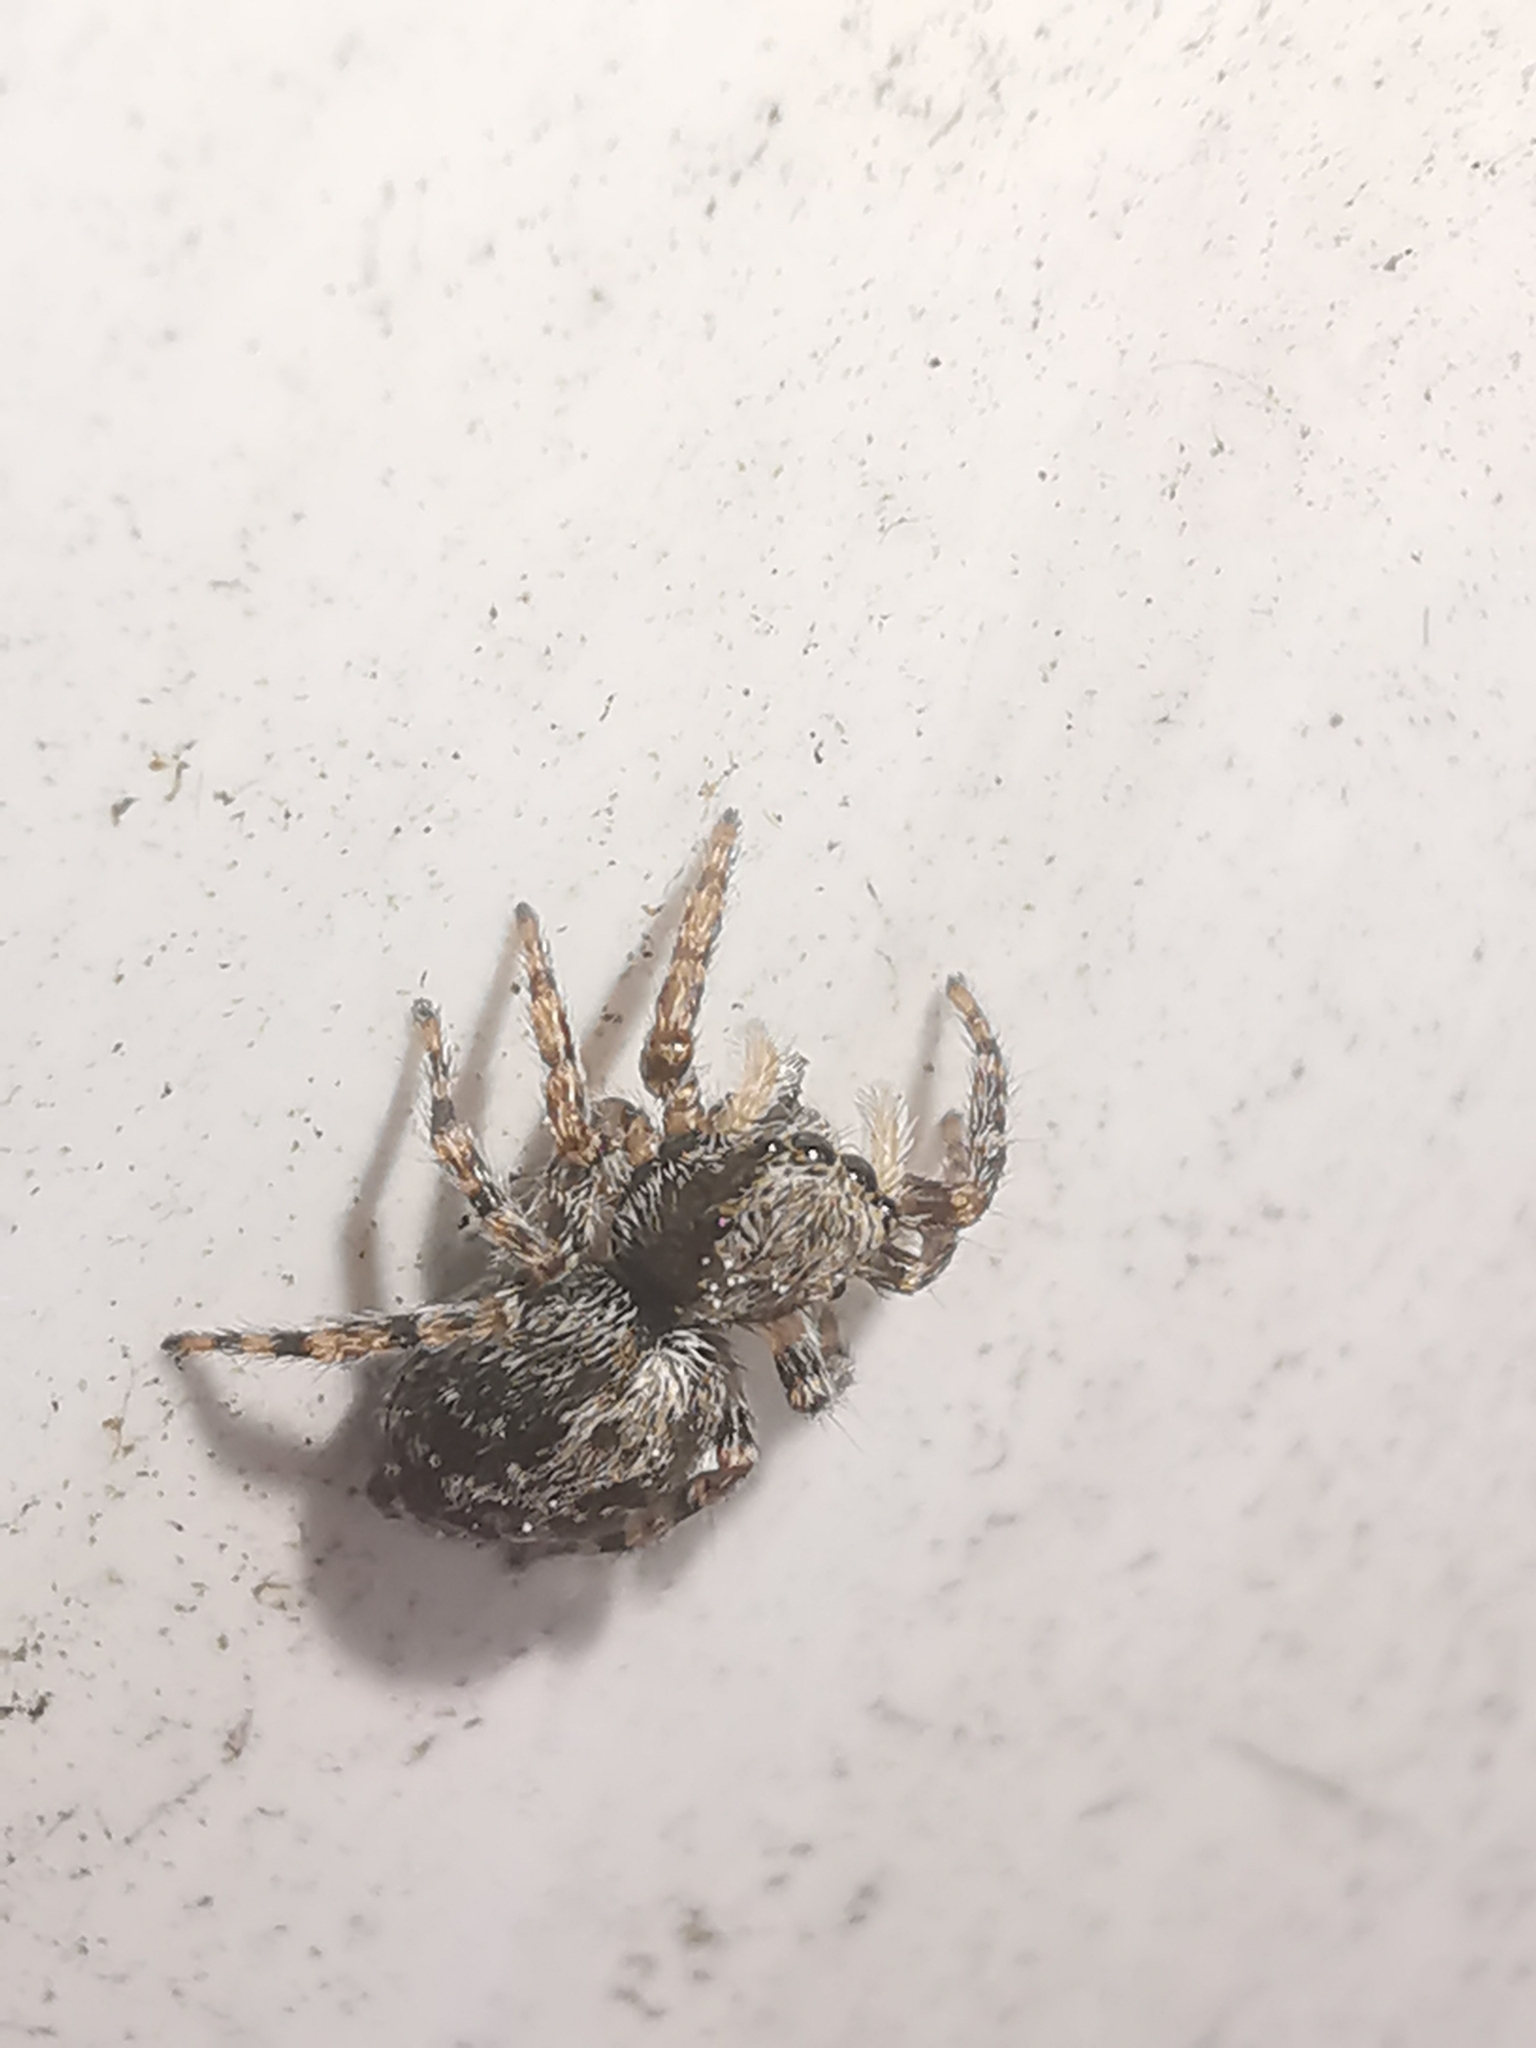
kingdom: Animalia
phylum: Arthropoda
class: Arachnida
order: Araneae
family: Salticidae
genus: Pseudeuophrys
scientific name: Pseudeuophrys lanigera
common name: Jumping spider
